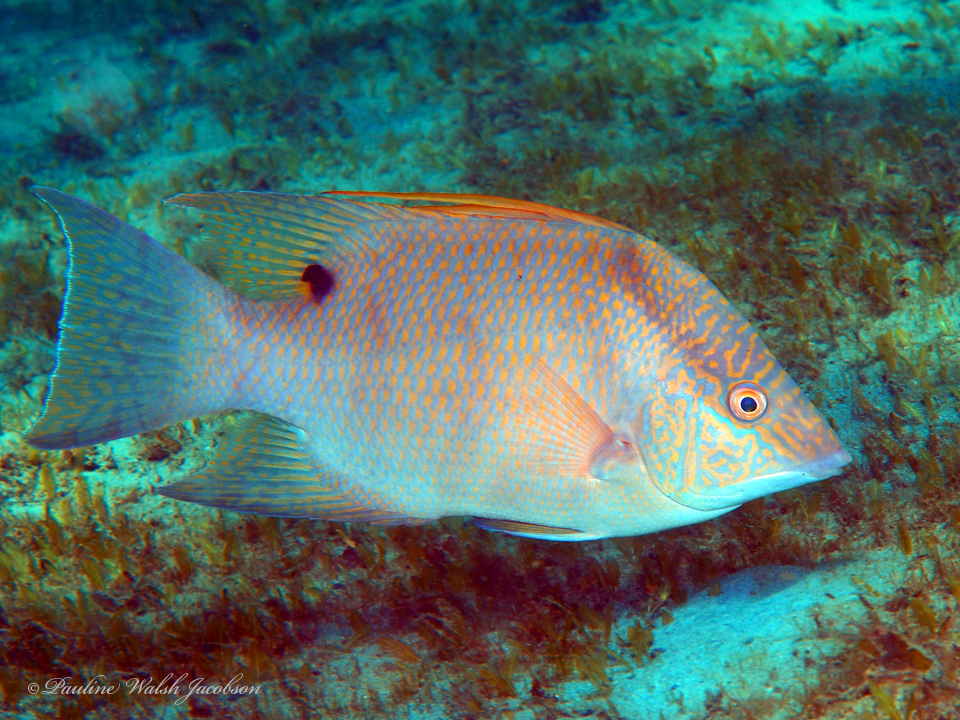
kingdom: Animalia
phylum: Chordata
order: Perciformes
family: Labridae
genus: Lachnolaimus
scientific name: Lachnolaimus maximus
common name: Hogfish
